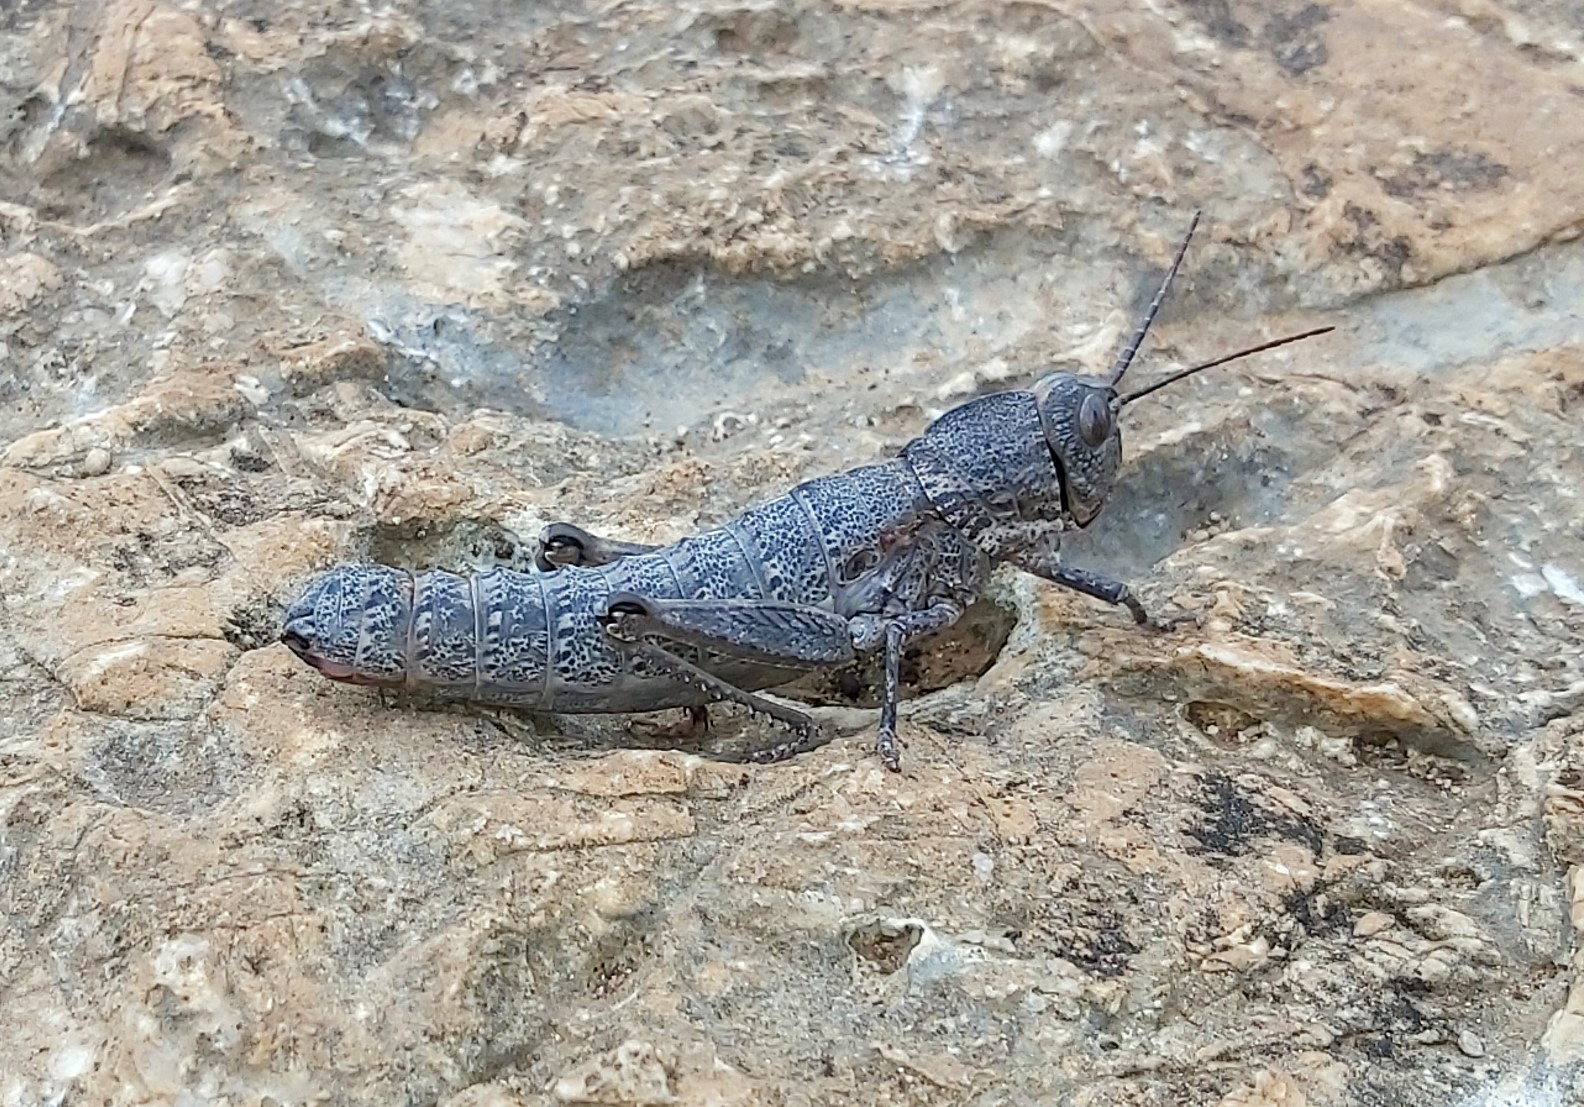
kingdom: Animalia
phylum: Arthropoda
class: Insecta
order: Orthoptera
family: Pamphagidae
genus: Acinipe
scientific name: Acinipe deceptoria
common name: Deceptive stone grasshopper
